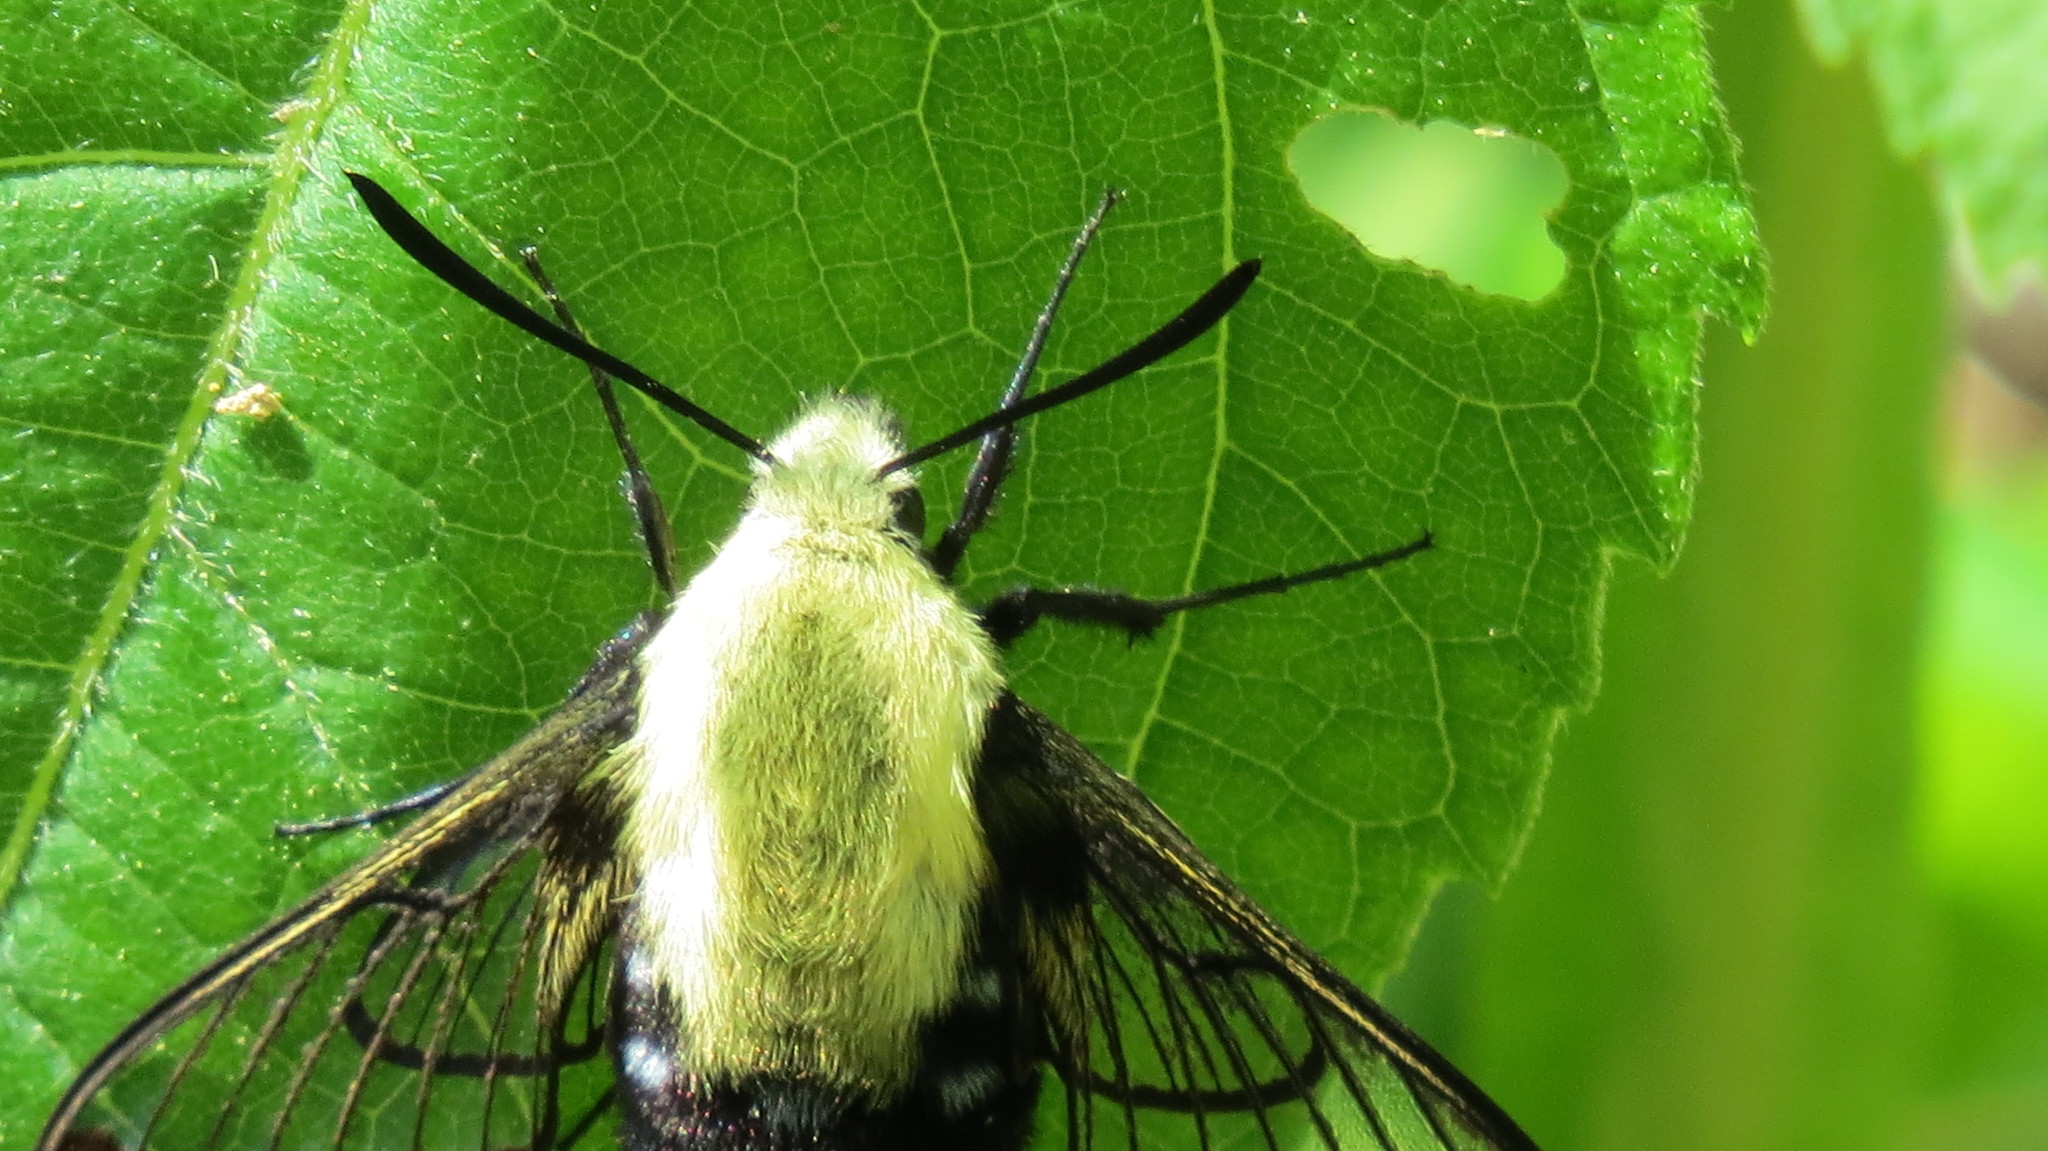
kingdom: Animalia
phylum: Arthropoda
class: Insecta
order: Lepidoptera
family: Sphingidae
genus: Hemaris
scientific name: Hemaris diffinis
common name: Bumblebee moth
